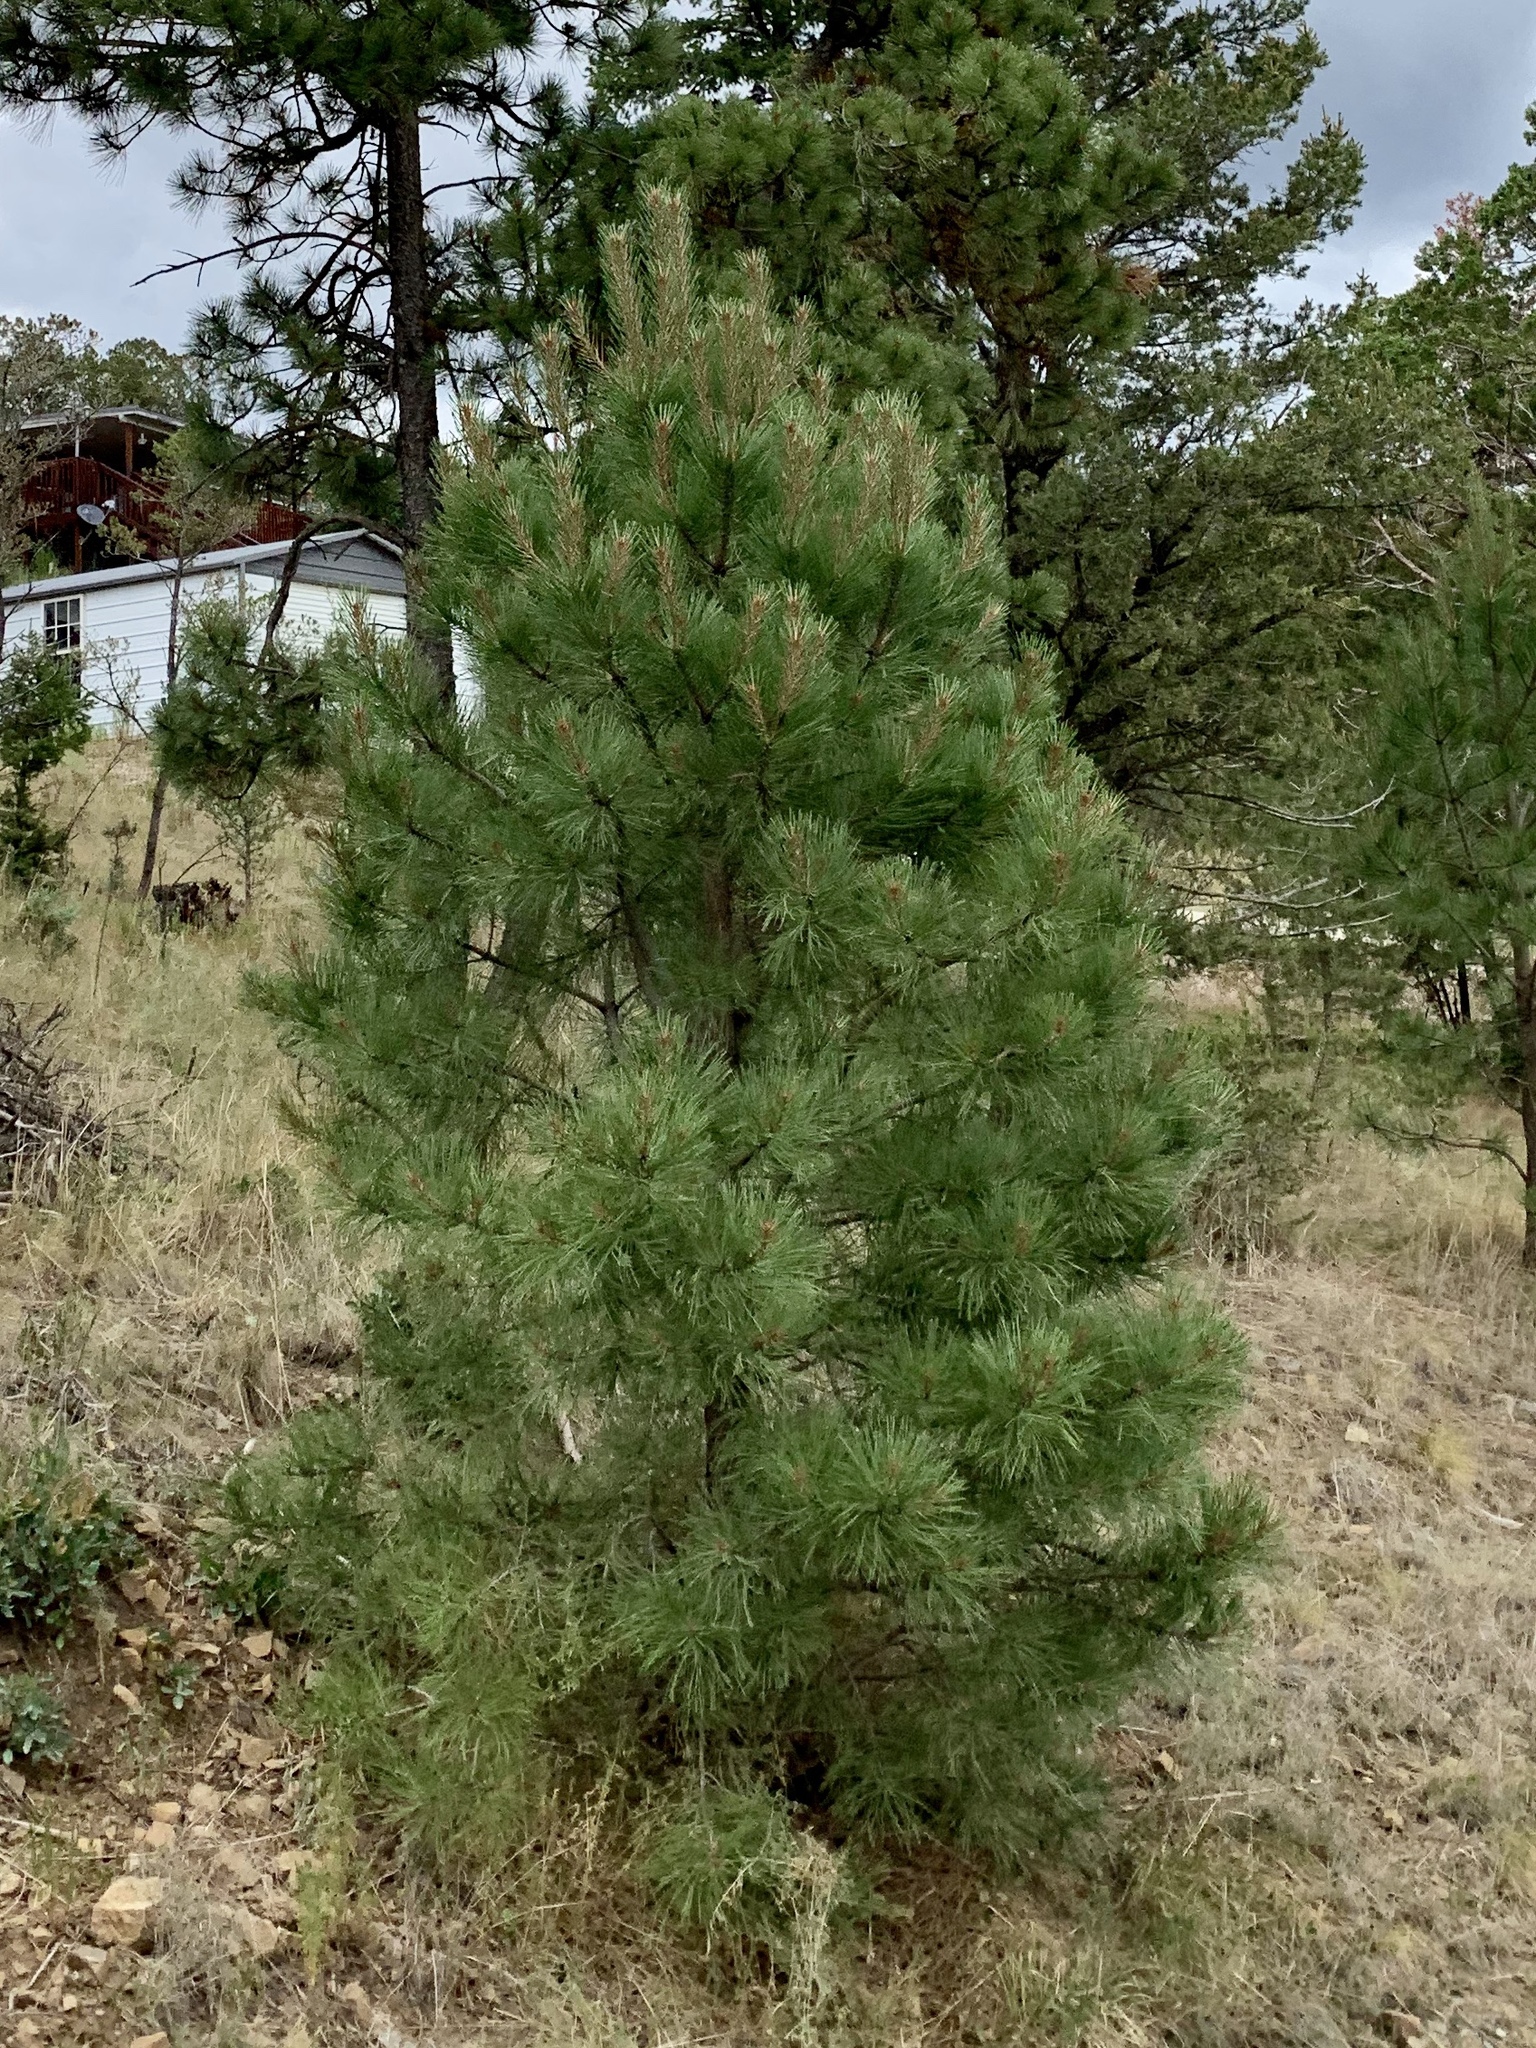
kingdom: Plantae
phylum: Tracheophyta
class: Pinopsida
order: Pinales
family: Pinaceae
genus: Pinus
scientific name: Pinus ponderosa
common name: Western yellow-pine
